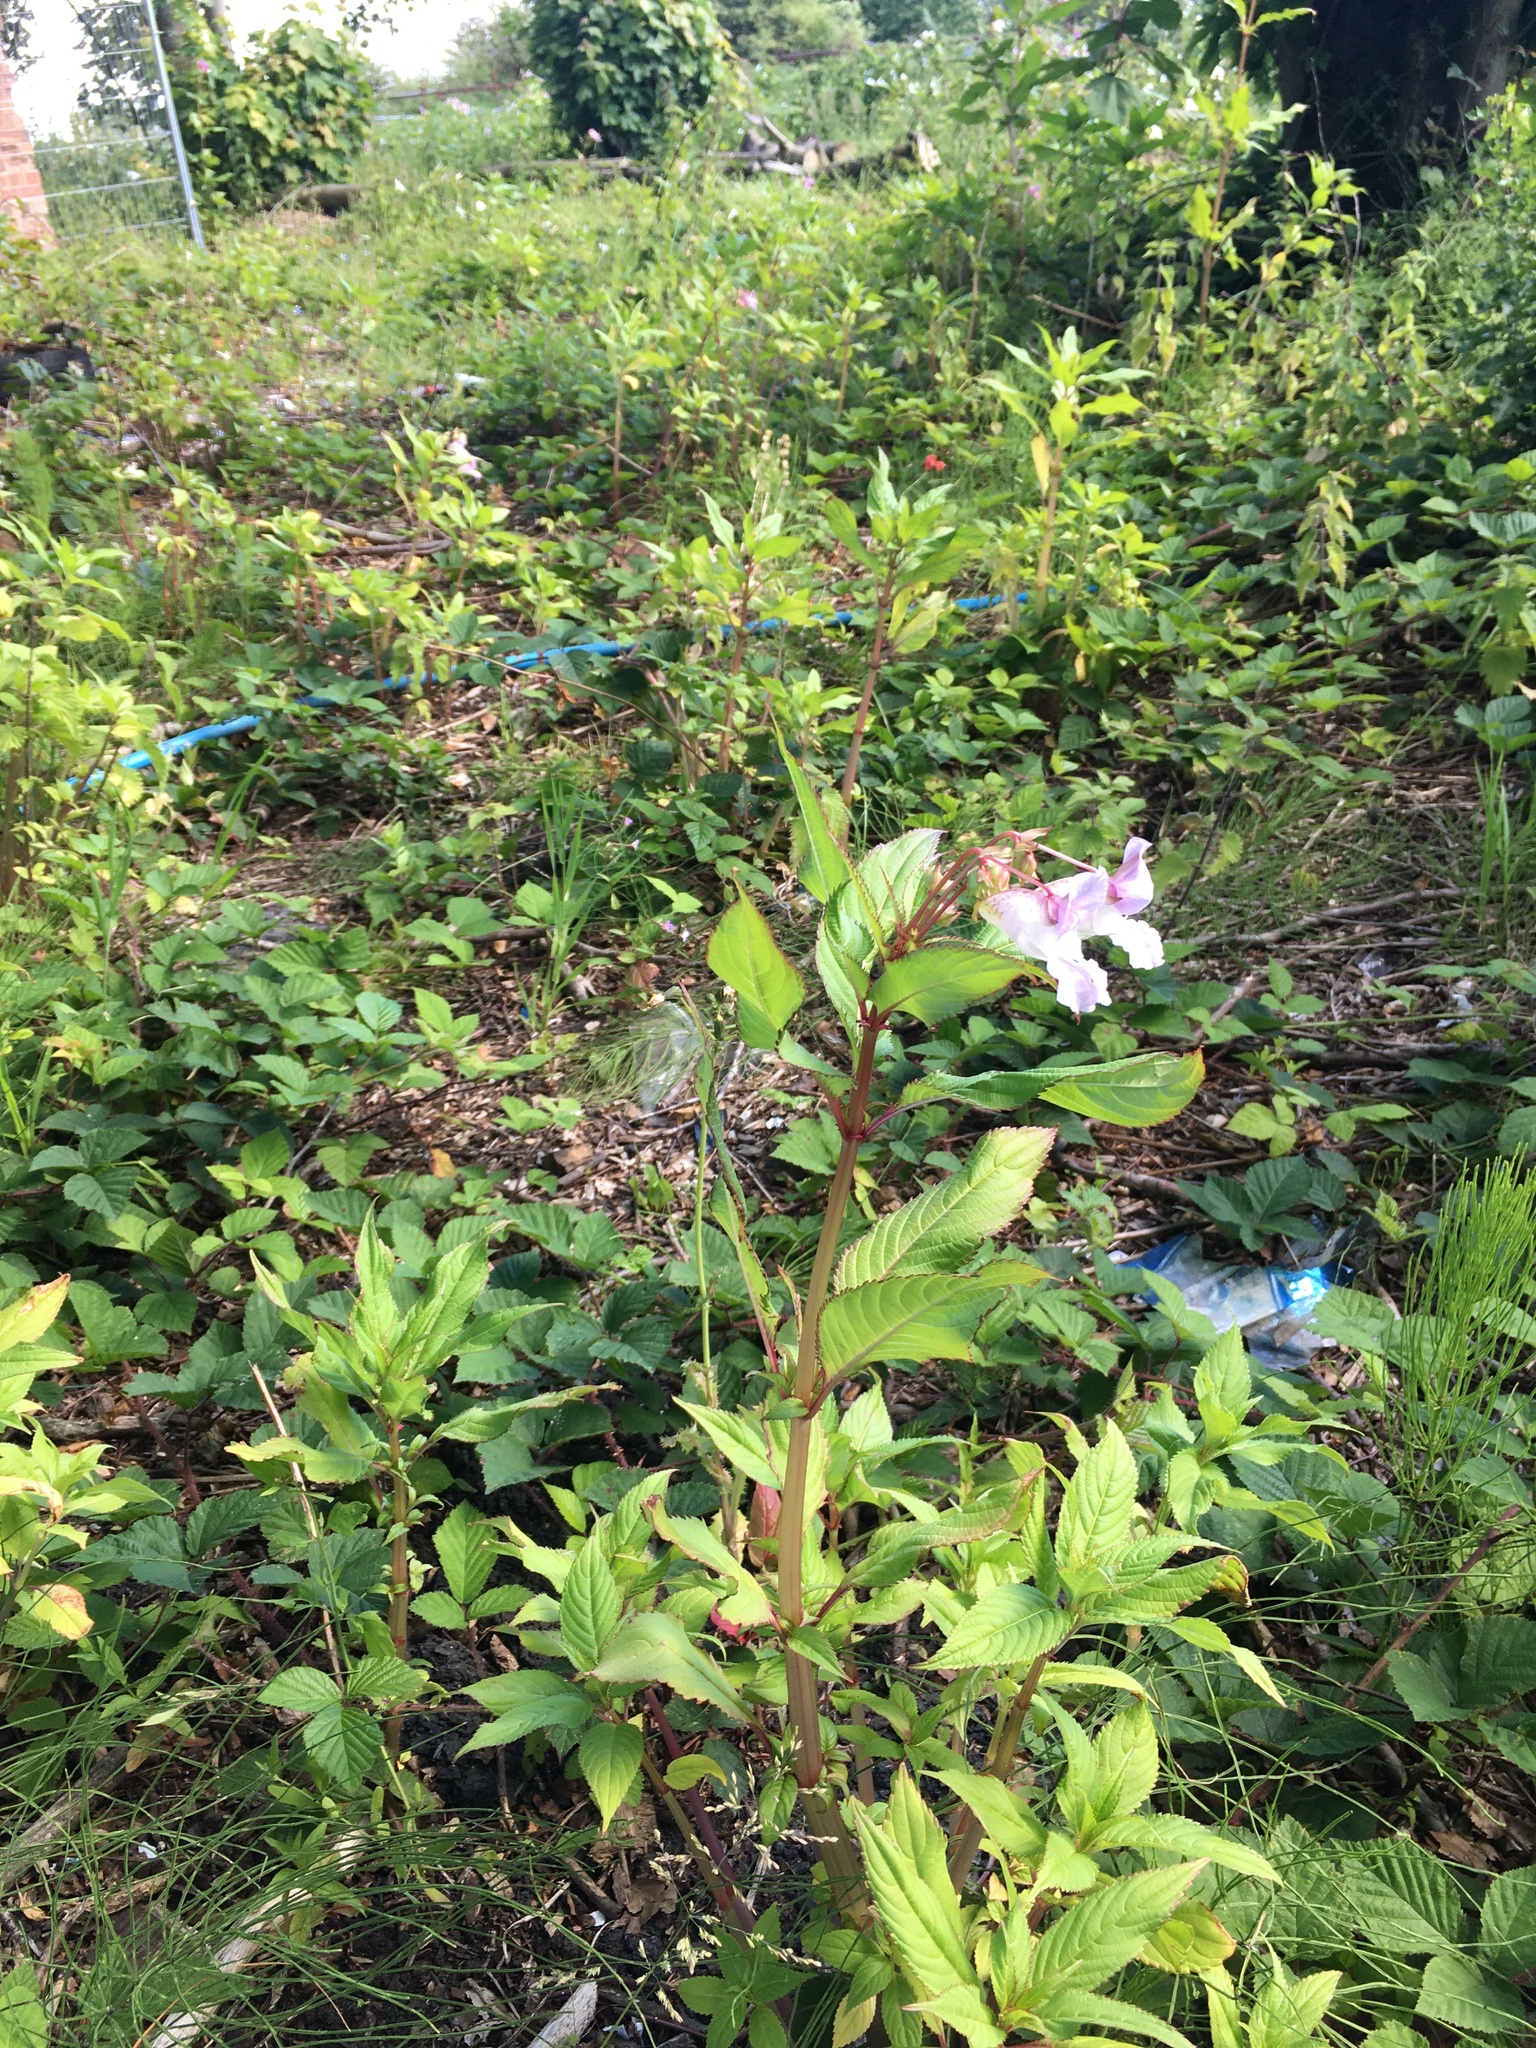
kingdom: Plantae
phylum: Tracheophyta
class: Magnoliopsida
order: Ericales
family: Balsaminaceae
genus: Impatiens
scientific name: Impatiens glandulifera
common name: Himalayan balsam
